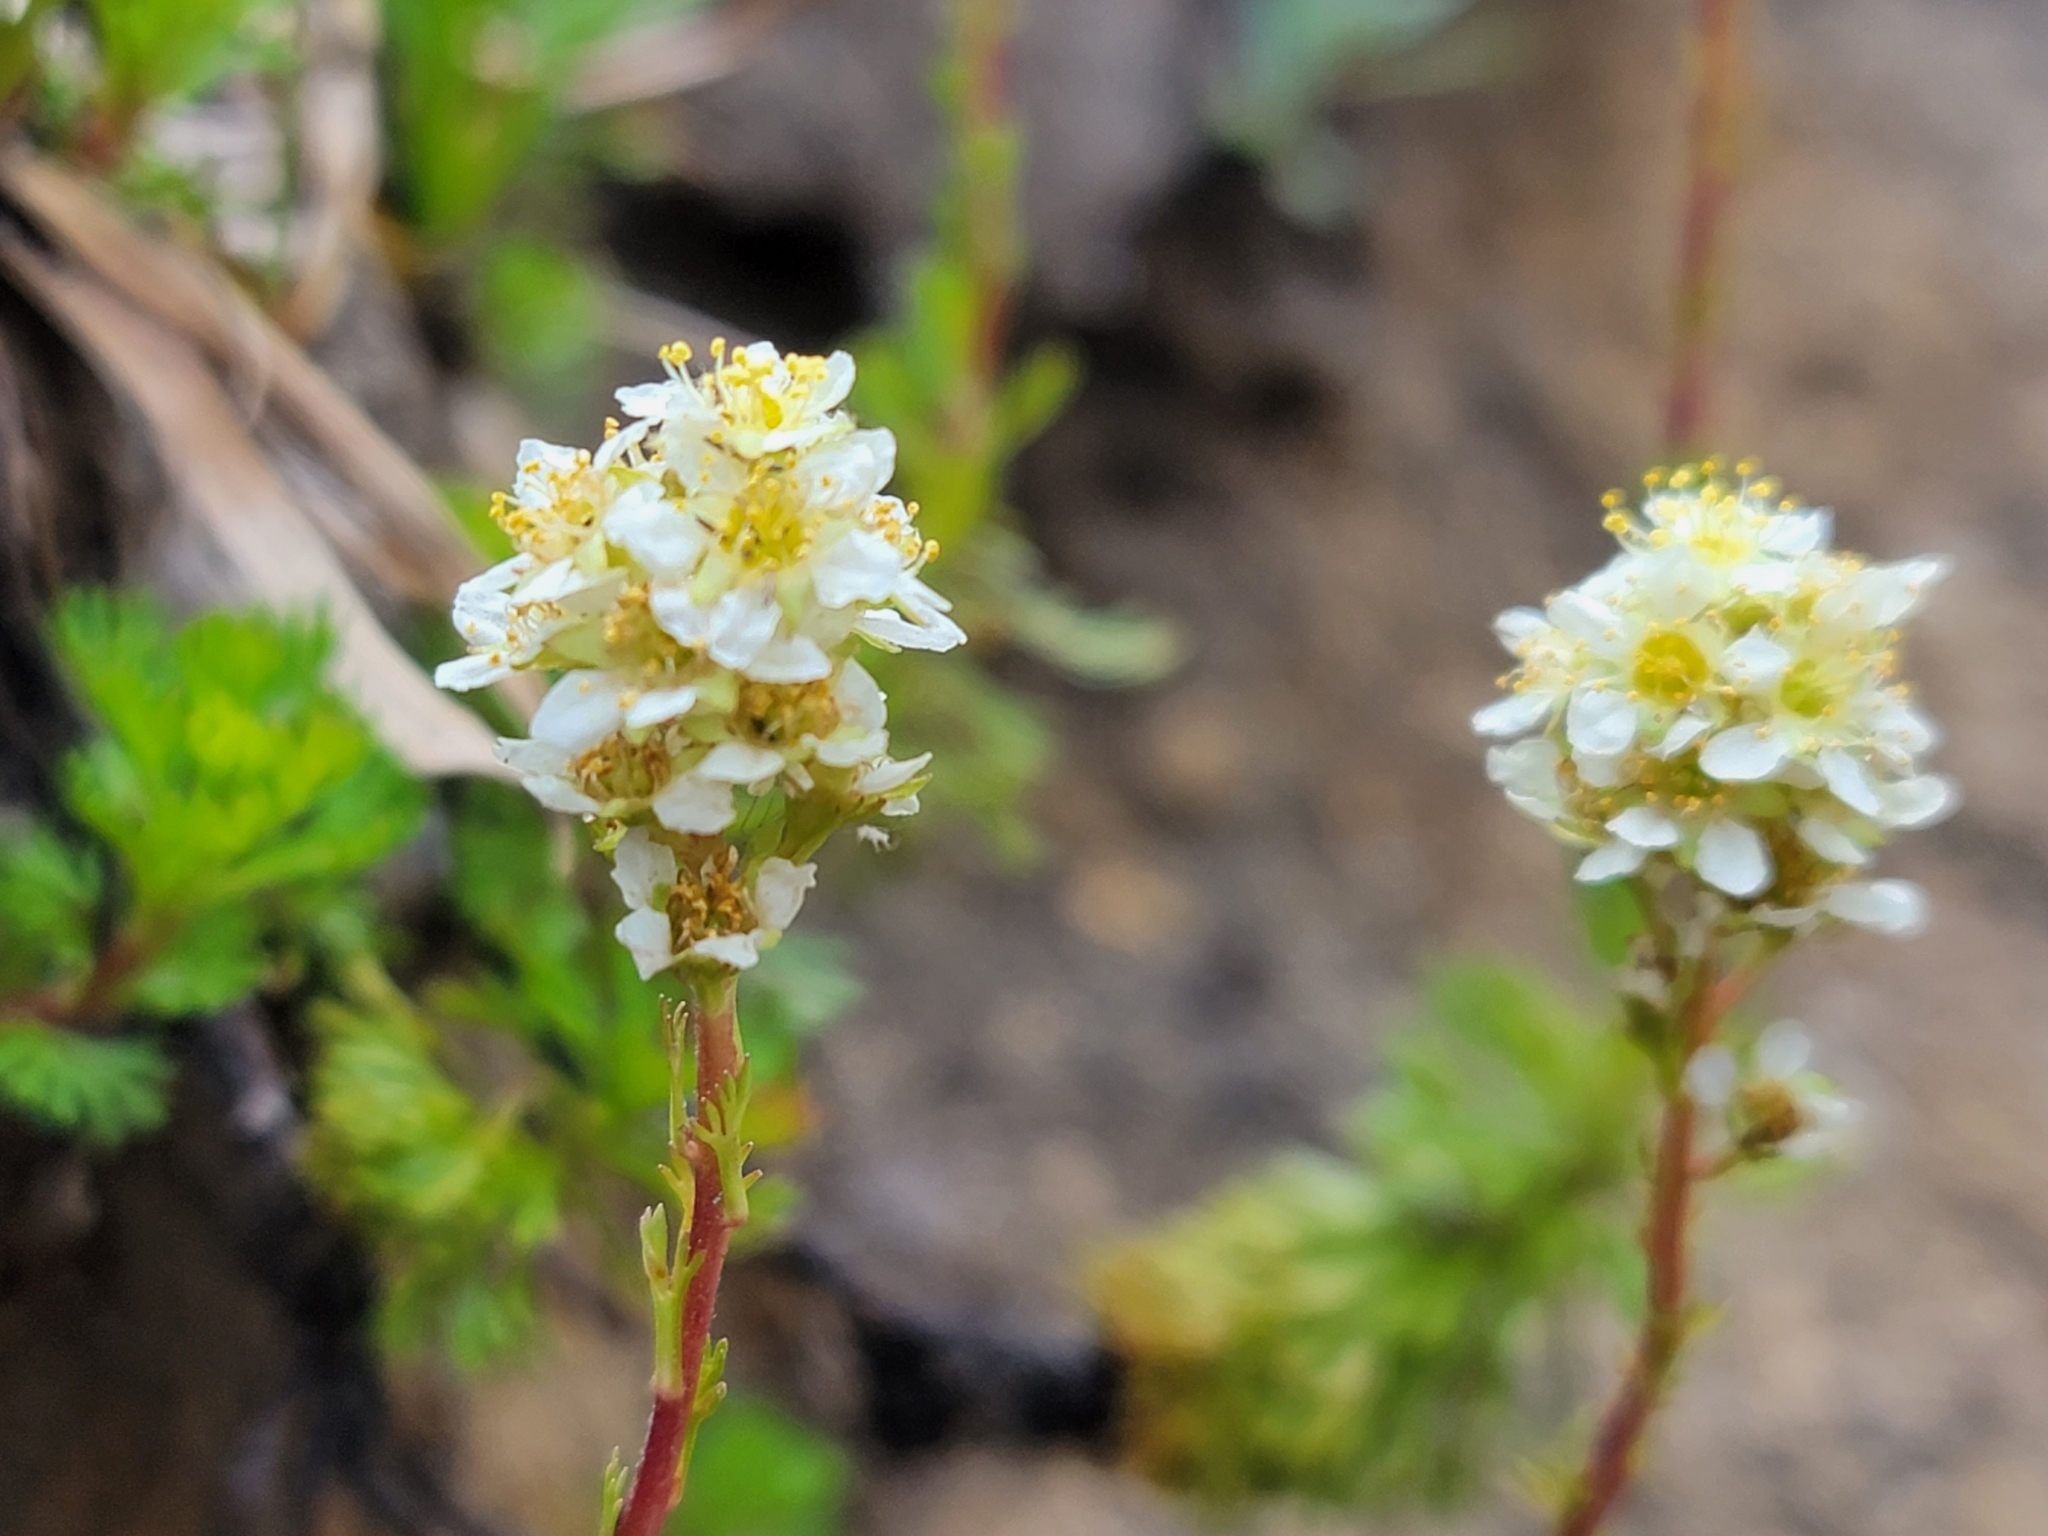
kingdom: Plantae
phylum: Tracheophyta
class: Magnoliopsida
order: Rosales
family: Rosaceae
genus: Luetkea
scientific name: Luetkea pectinata
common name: Partridgefoot
